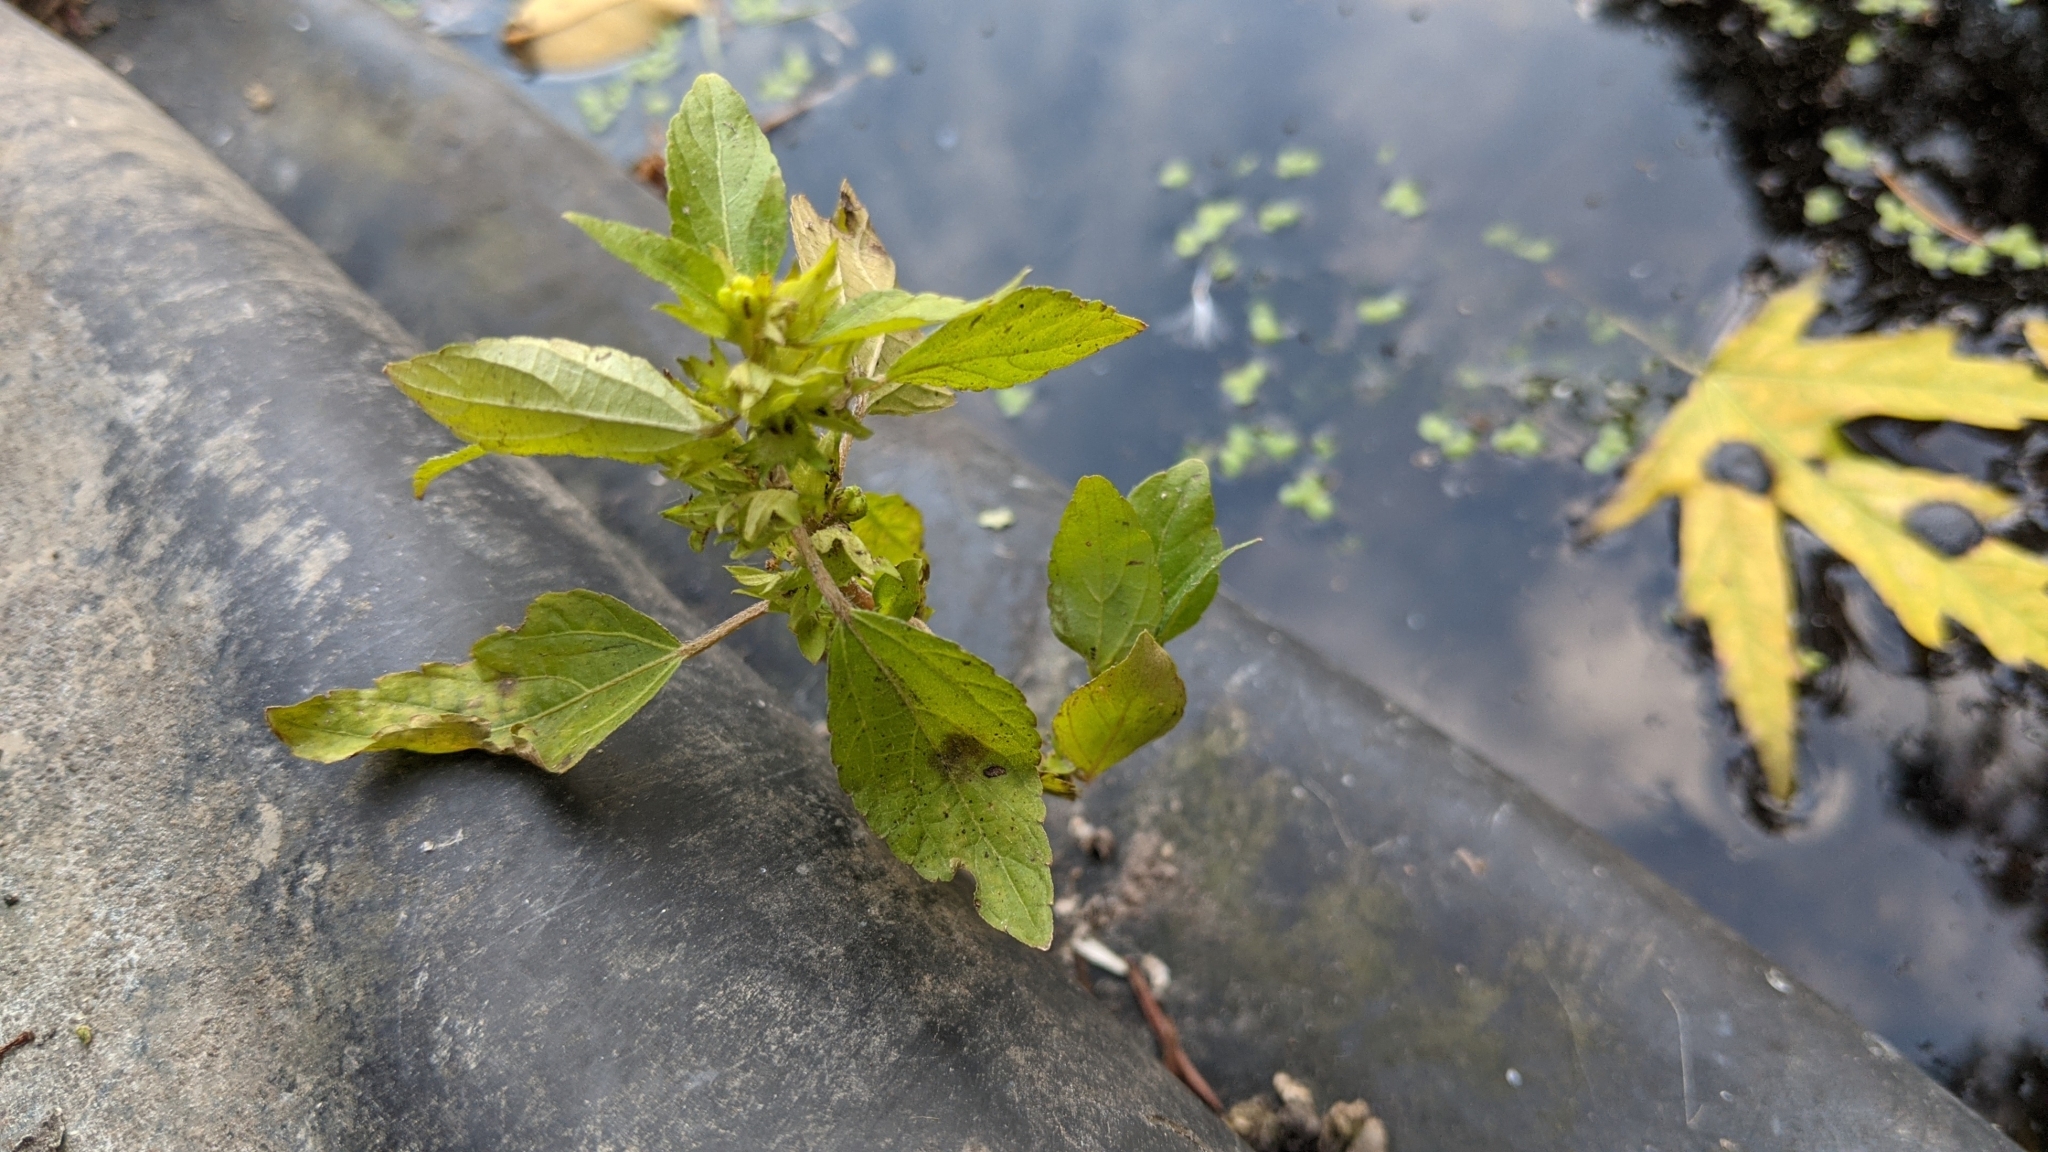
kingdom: Plantae
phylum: Tracheophyta
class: Magnoliopsida
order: Malpighiales
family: Euphorbiaceae
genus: Acalypha
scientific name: Acalypha rhomboidea
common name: Rhombic copperleaf
